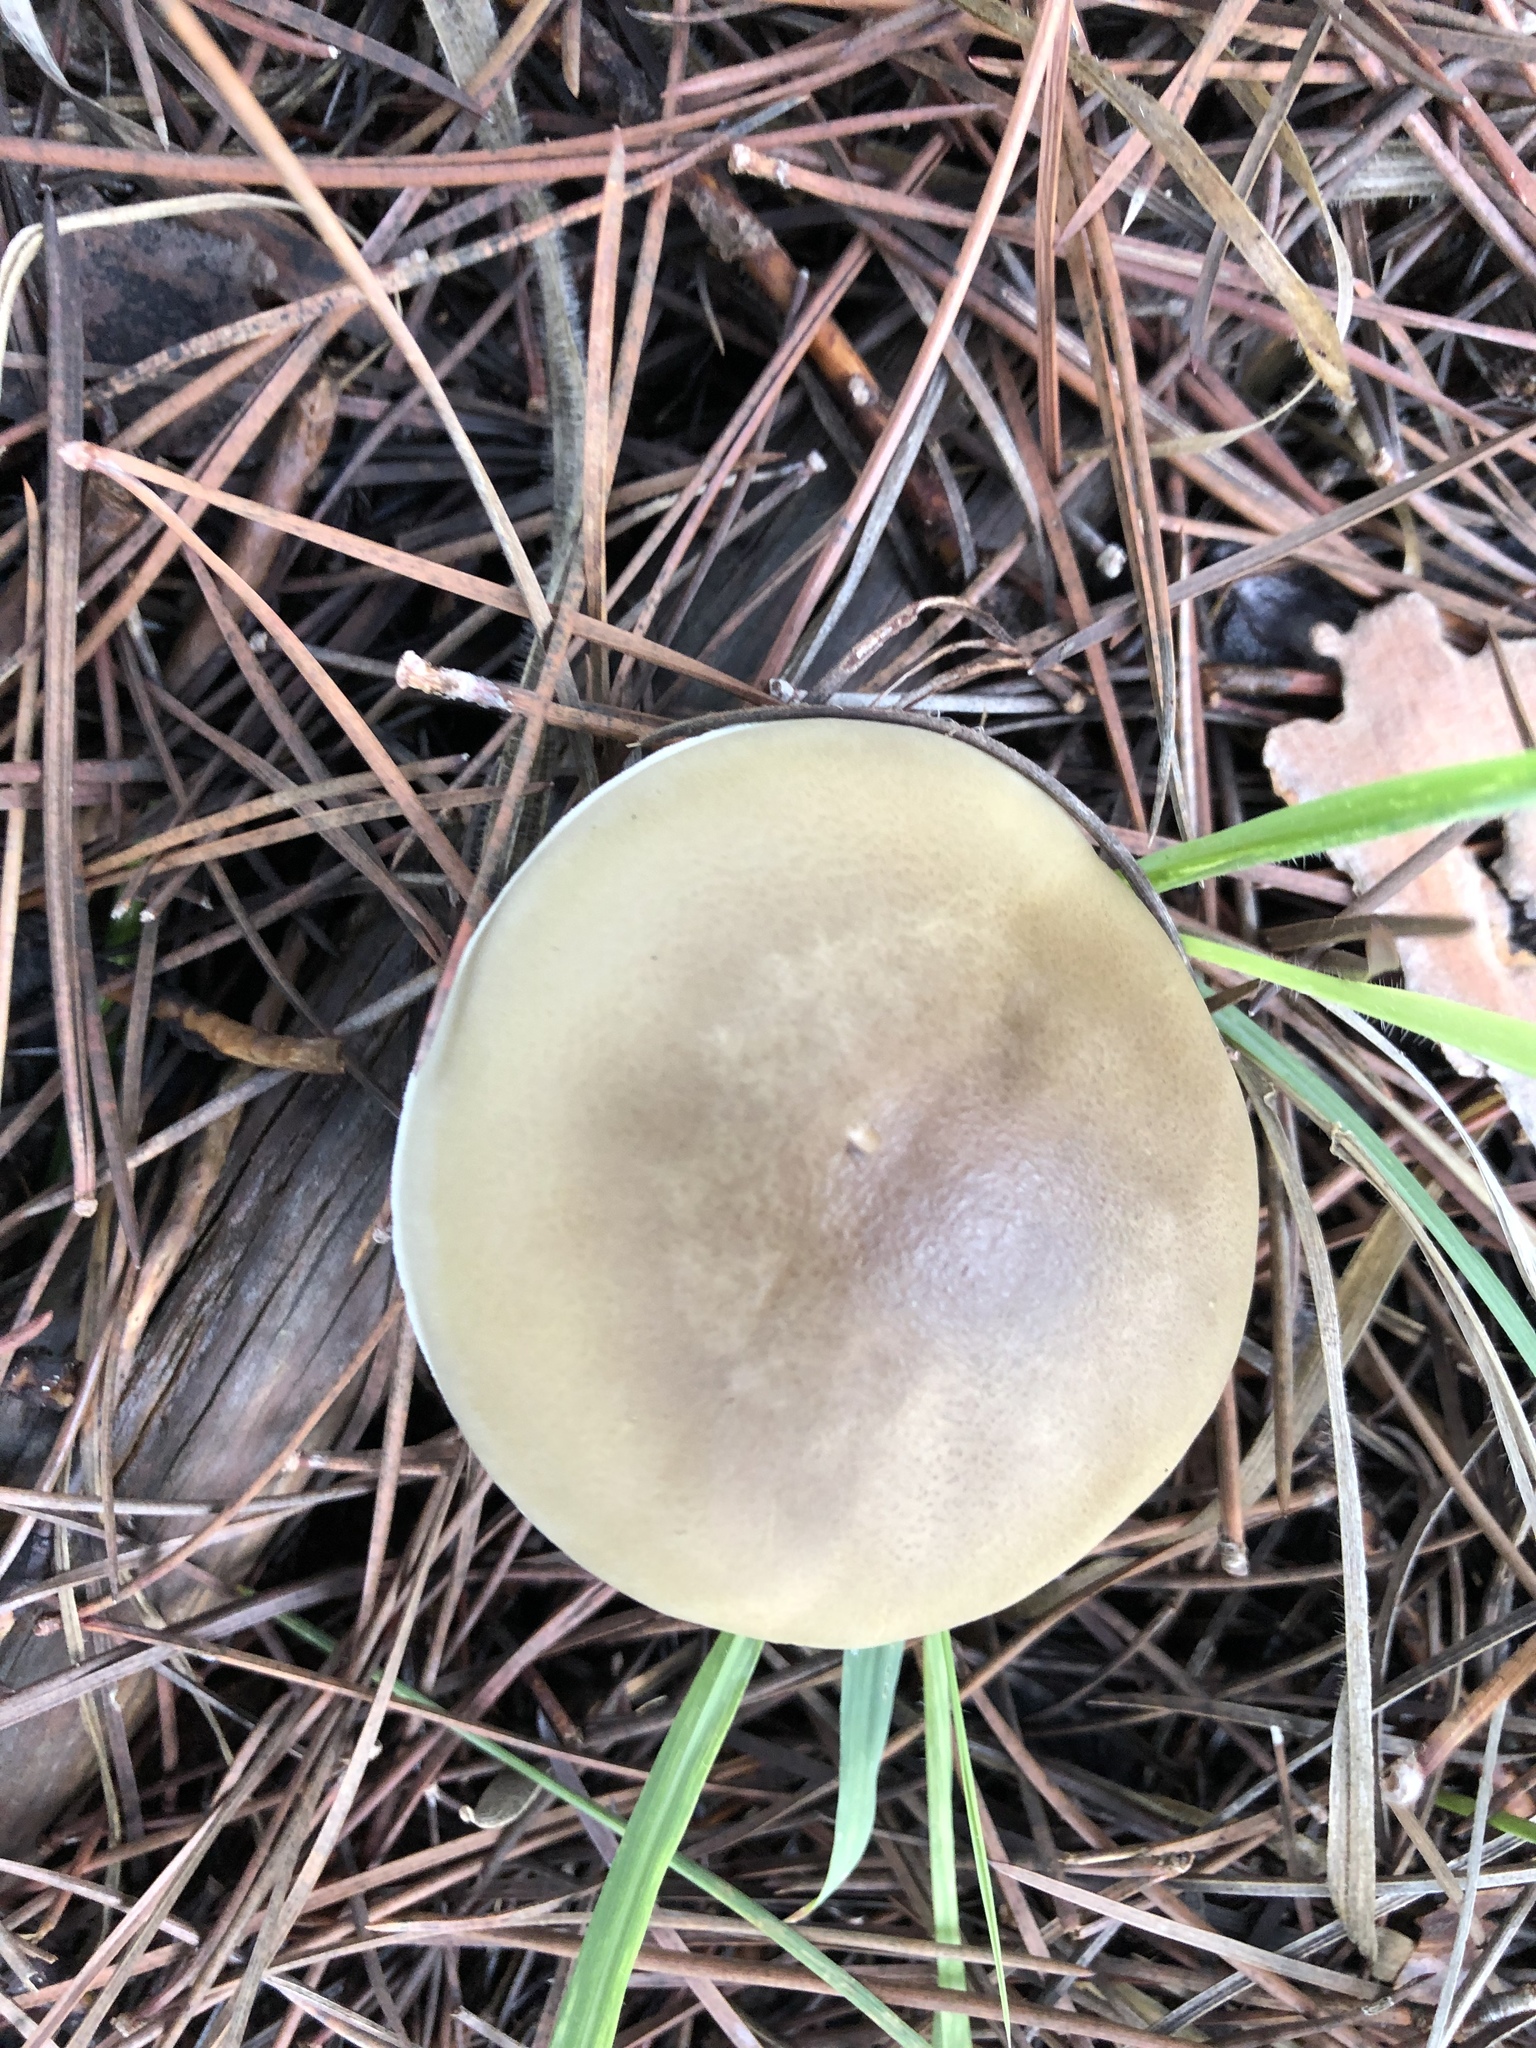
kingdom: Fungi
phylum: Basidiomycota
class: Agaricomycetes
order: Agaricales
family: Tricholomataceae
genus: Tricholoma
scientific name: Tricholoma saponaceum
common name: Soapy trich
